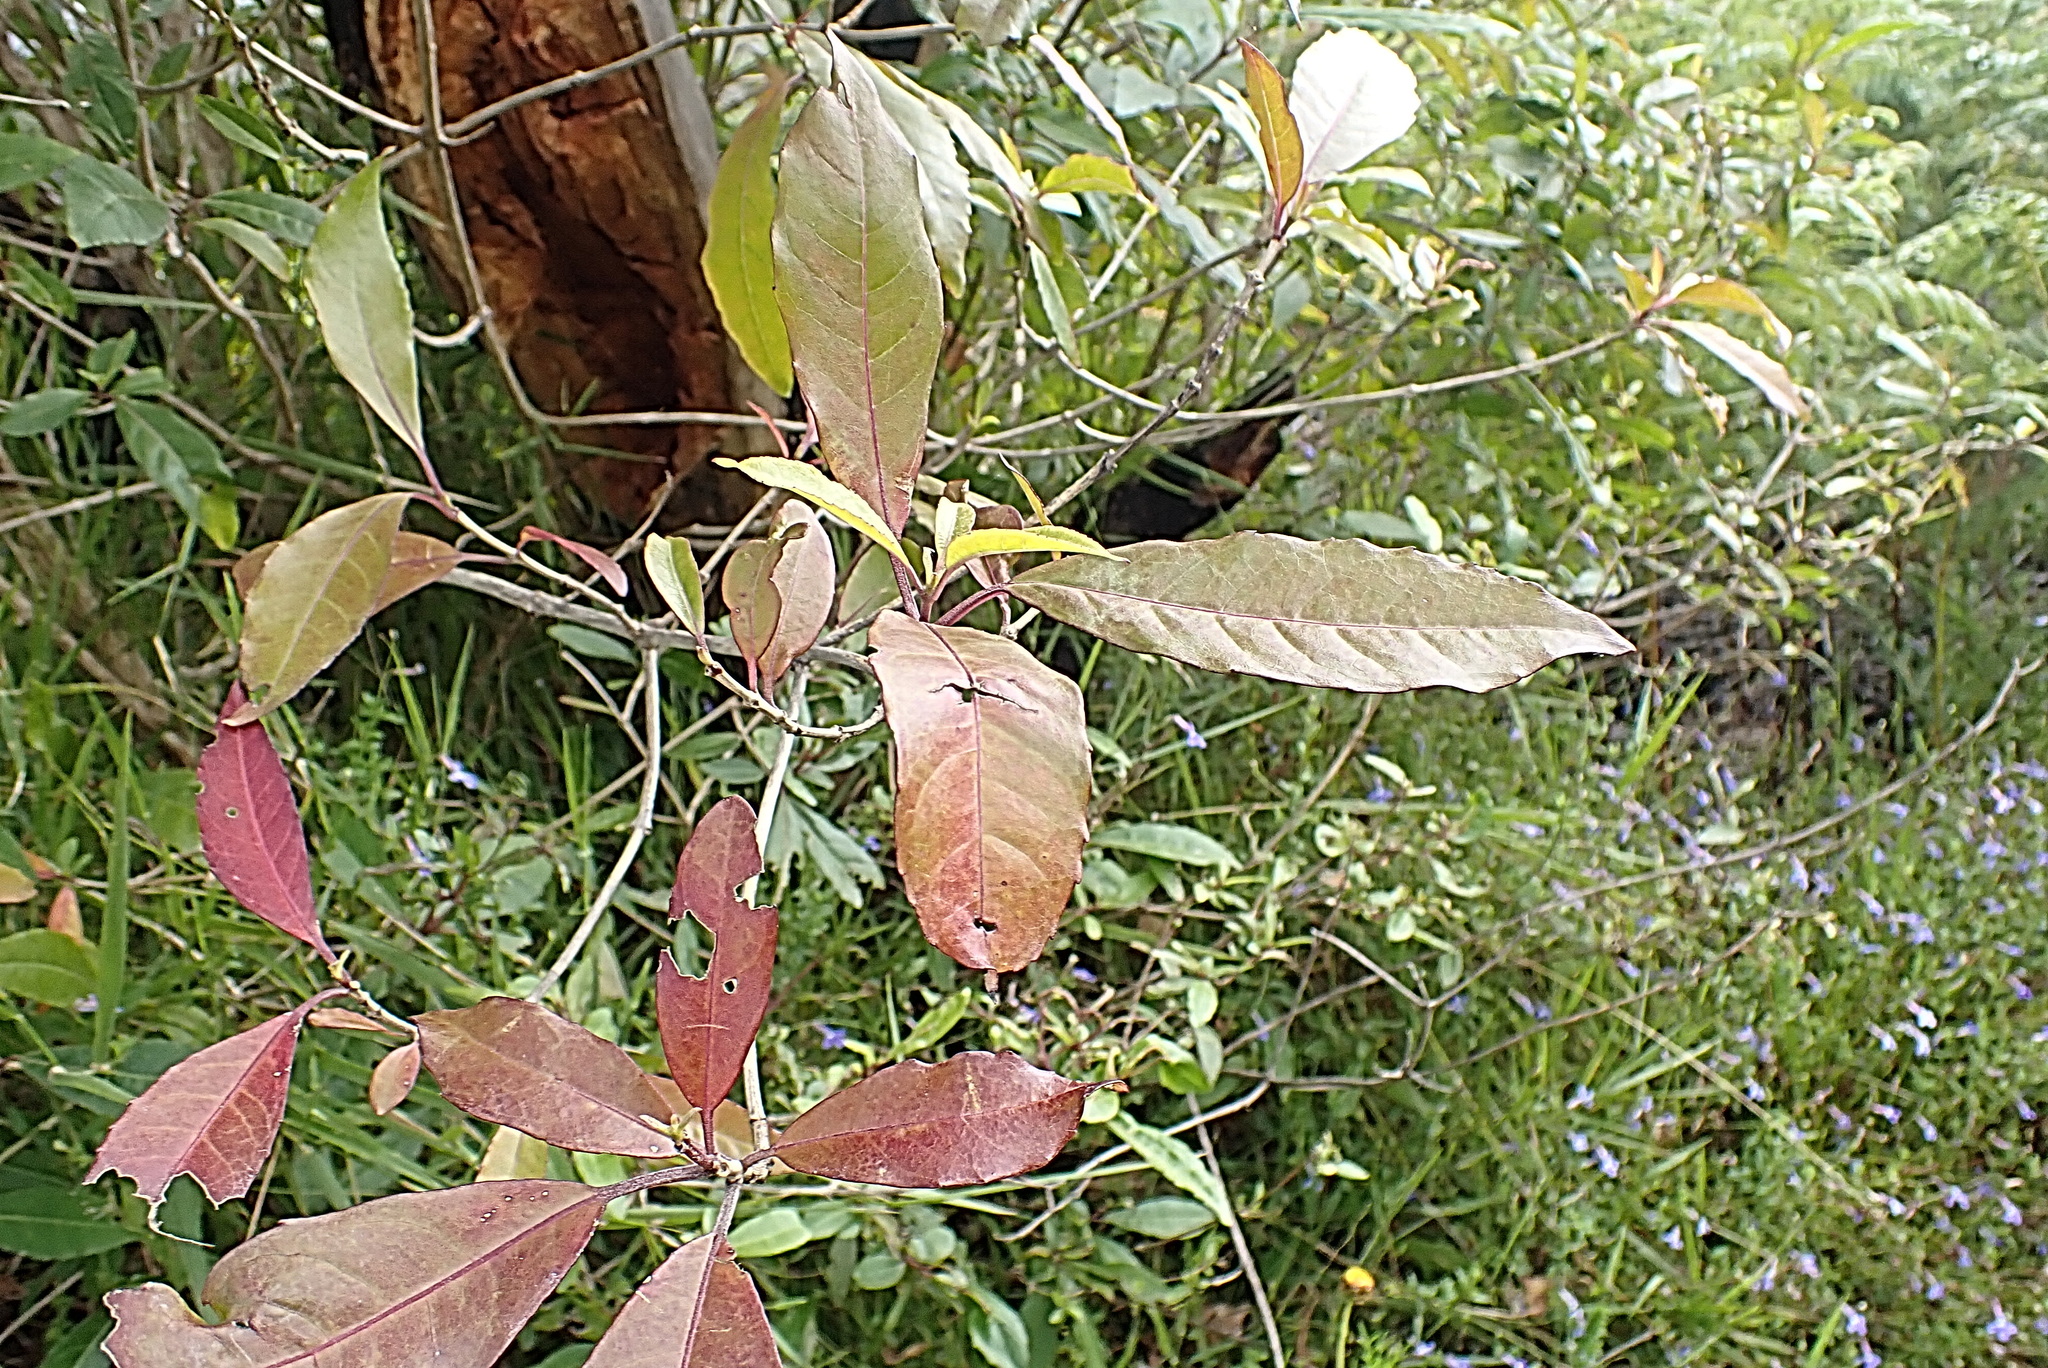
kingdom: Plantae
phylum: Tracheophyta
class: Magnoliopsida
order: Lamiales
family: Stilbaceae
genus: Nuxia
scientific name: Nuxia floribunda
